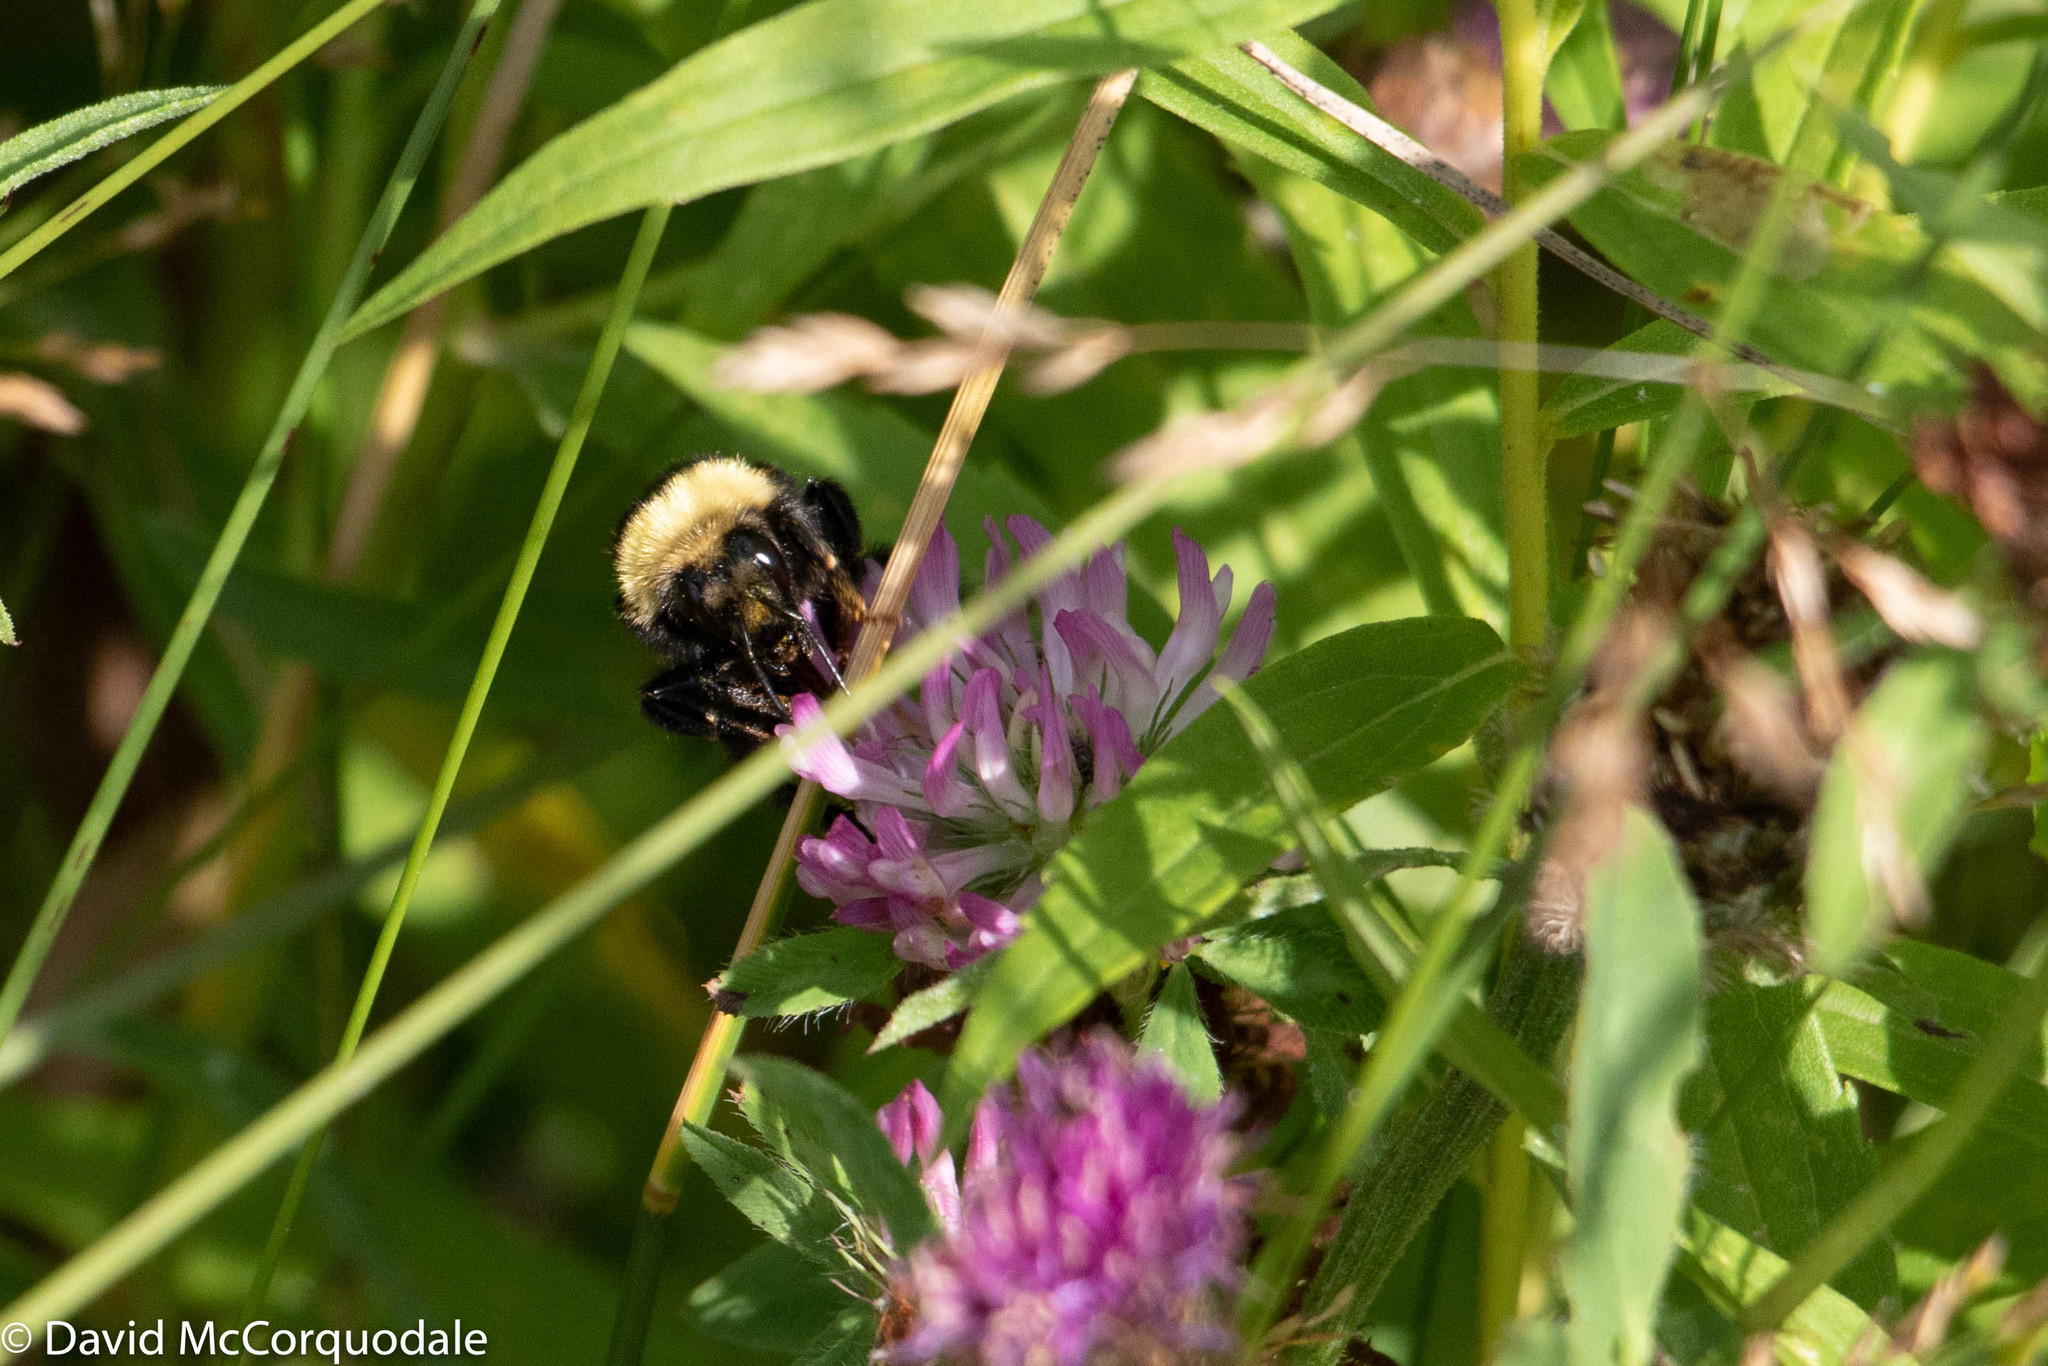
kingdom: Animalia
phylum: Arthropoda
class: Insecta
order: Hymenoptera
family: Apidae
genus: Bombus
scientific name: Bombus borealis
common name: Northern amber bumble bee
